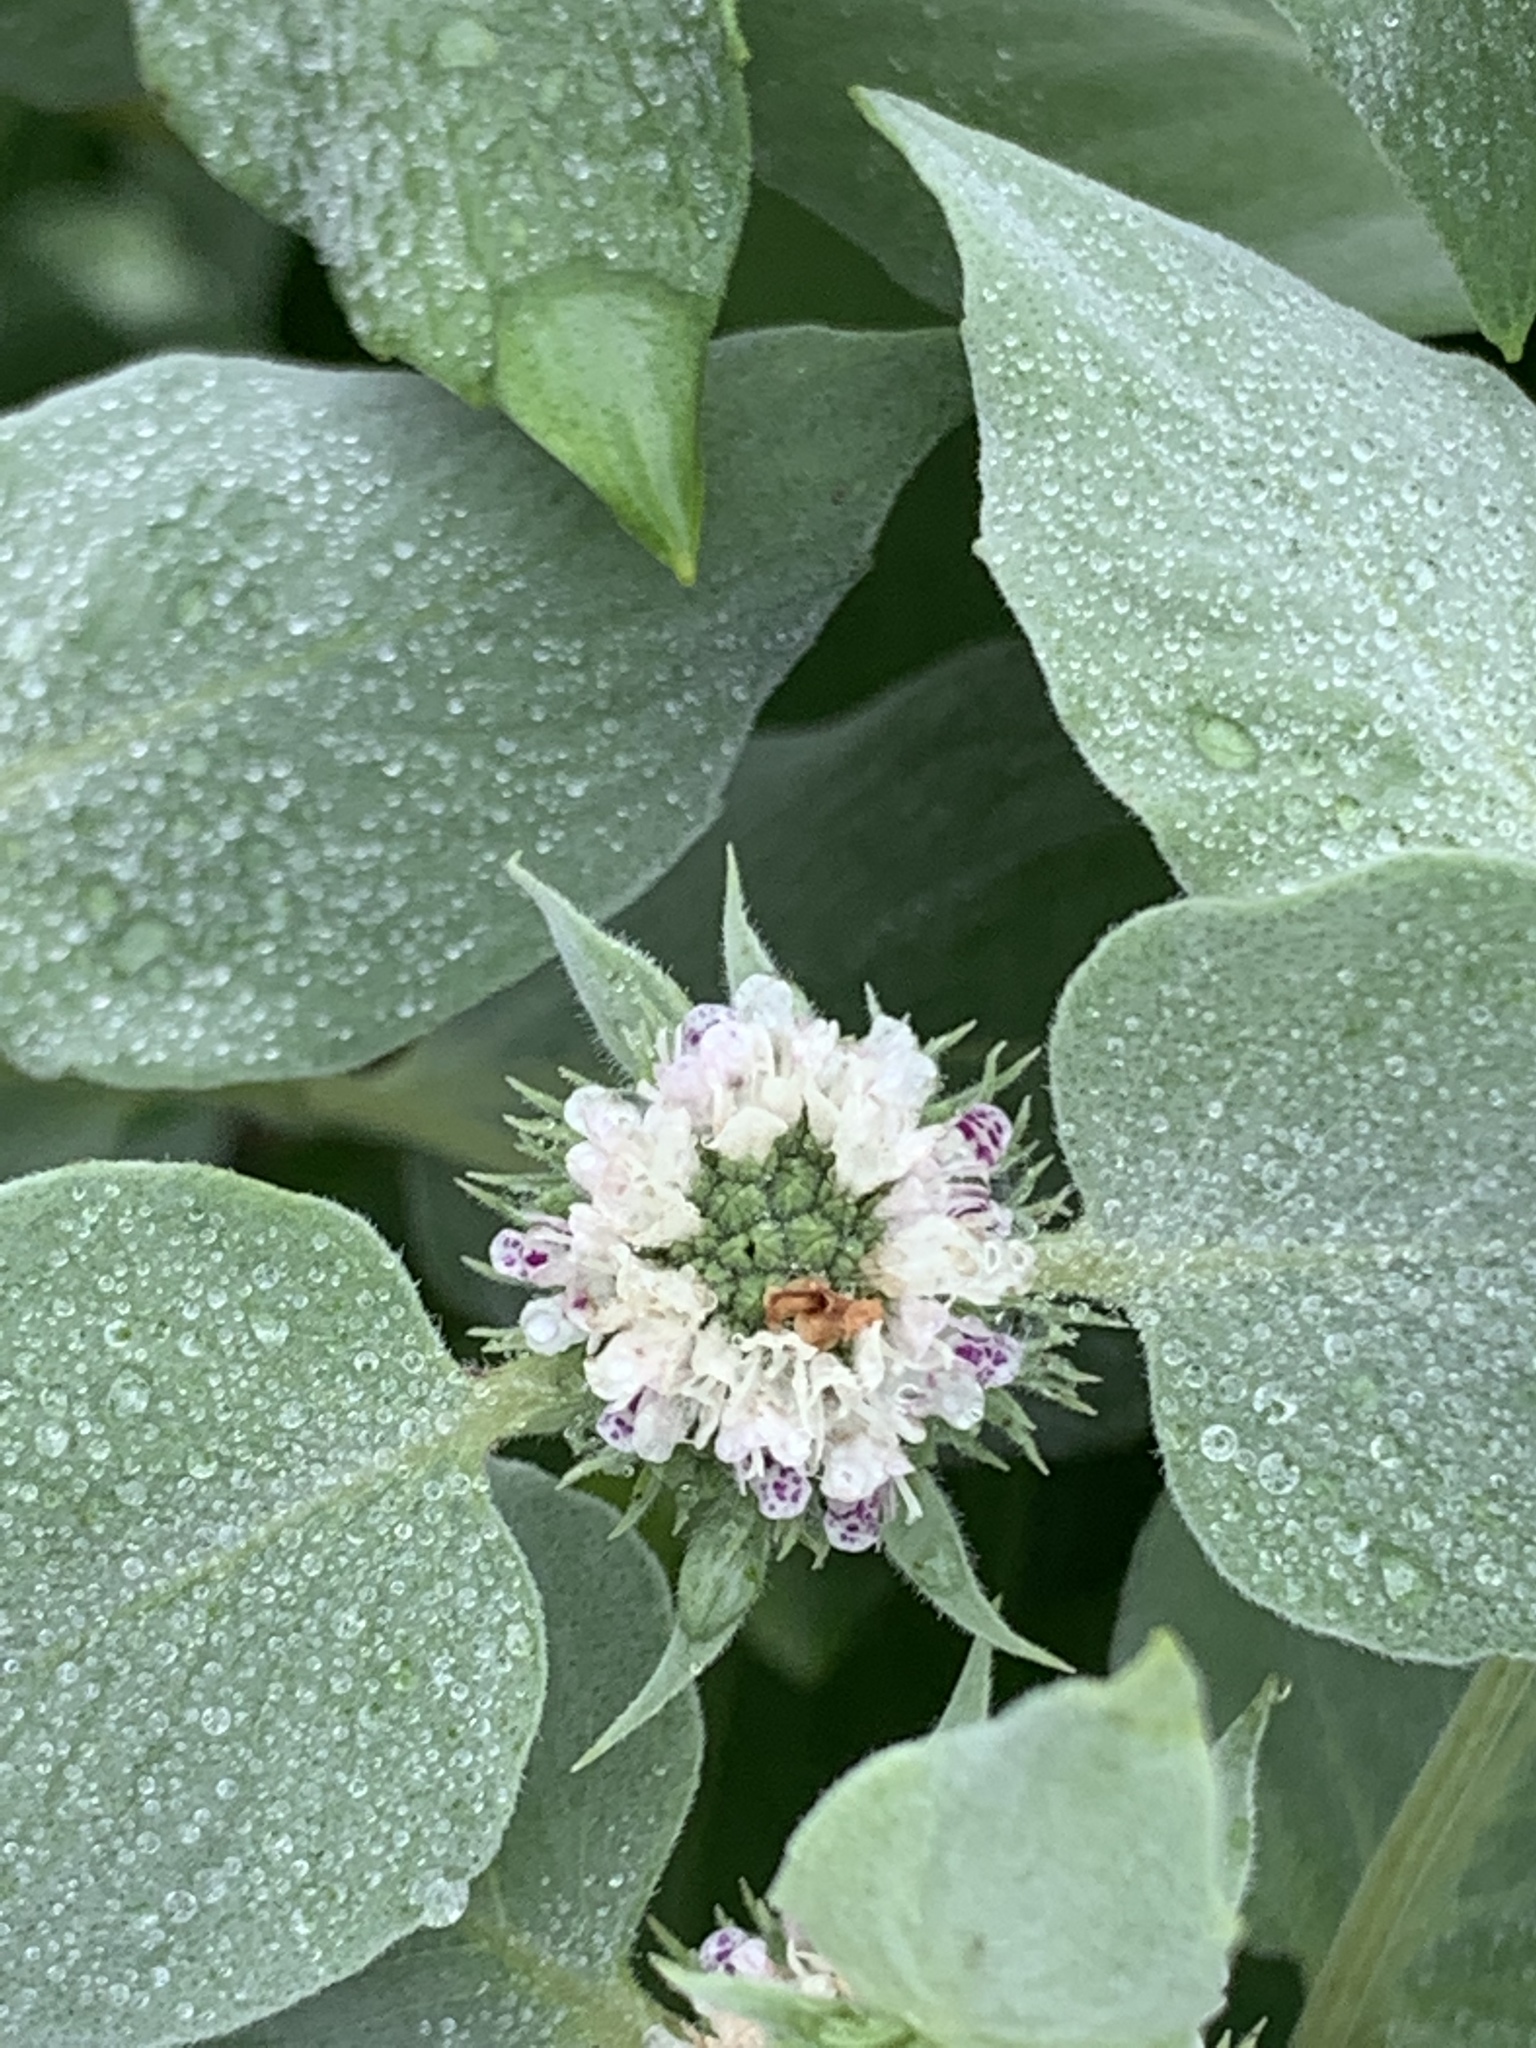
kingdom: Plantae
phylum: Tracheophyta
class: Magnoliopsida
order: Lamiales
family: Lamiaceae
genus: Pycnanthemum
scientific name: Pycnanthemum muticum
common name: Blunt mountain-mint
